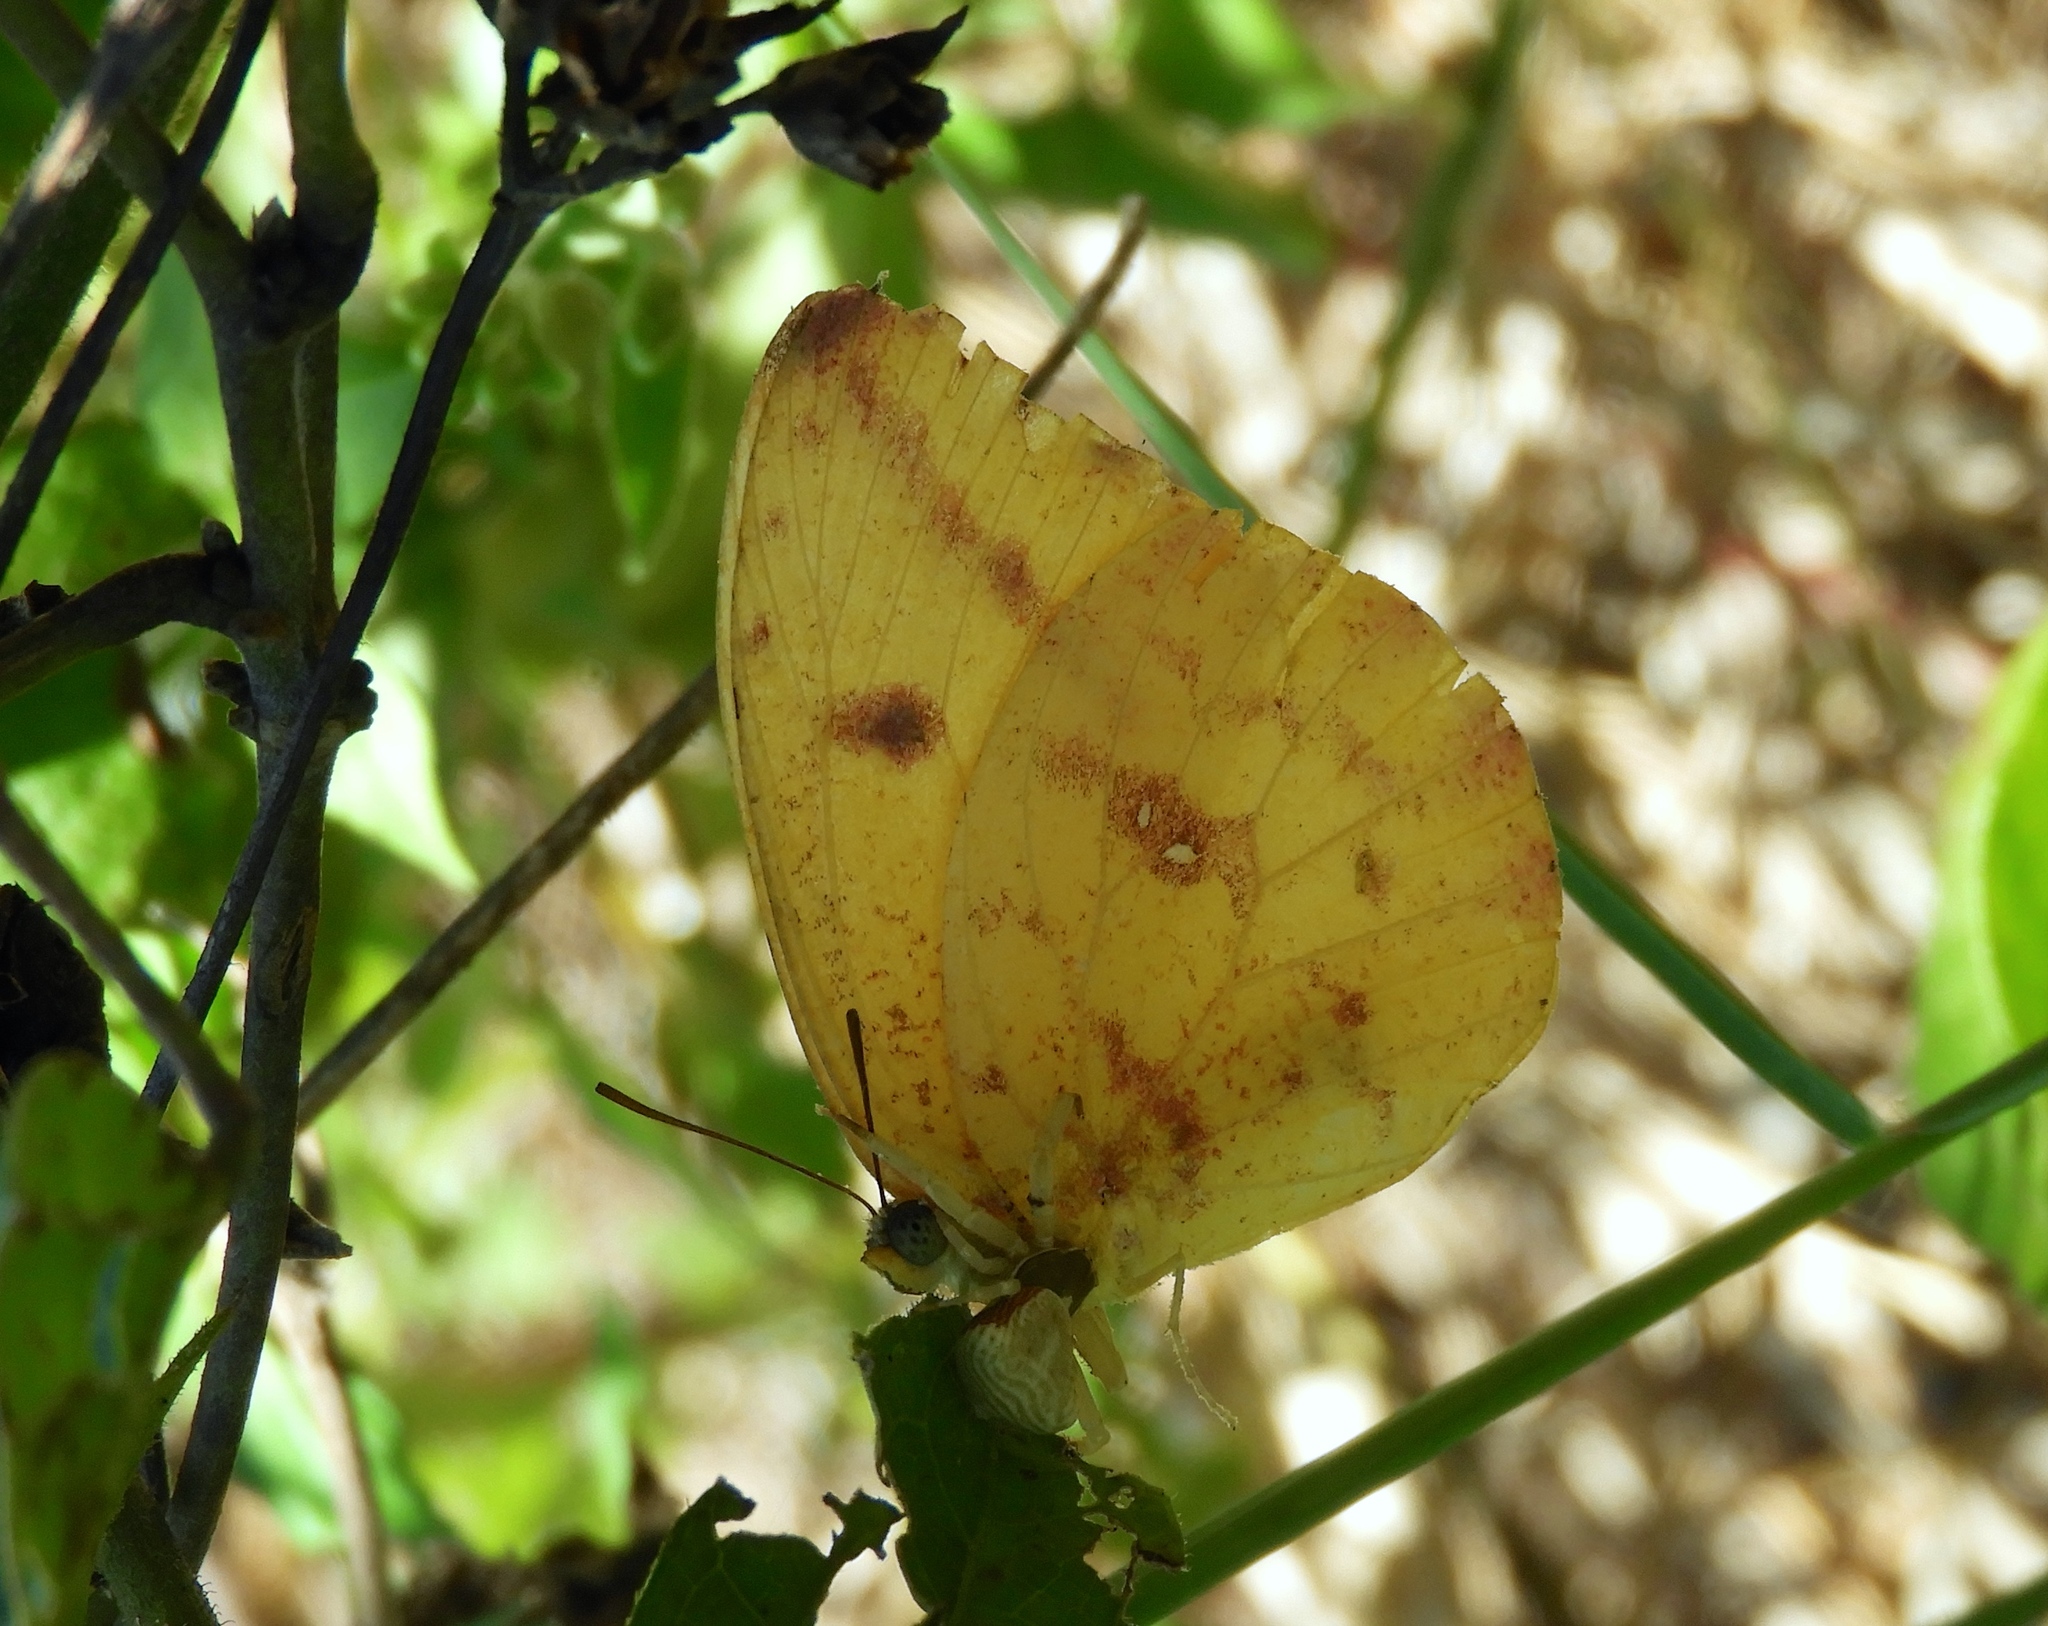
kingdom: Animalia
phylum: Arthropoda
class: Insecta
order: Lepidoptera
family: Pieridae
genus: Phoebis
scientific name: Phoebis agarithe
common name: Large orange sulphur
